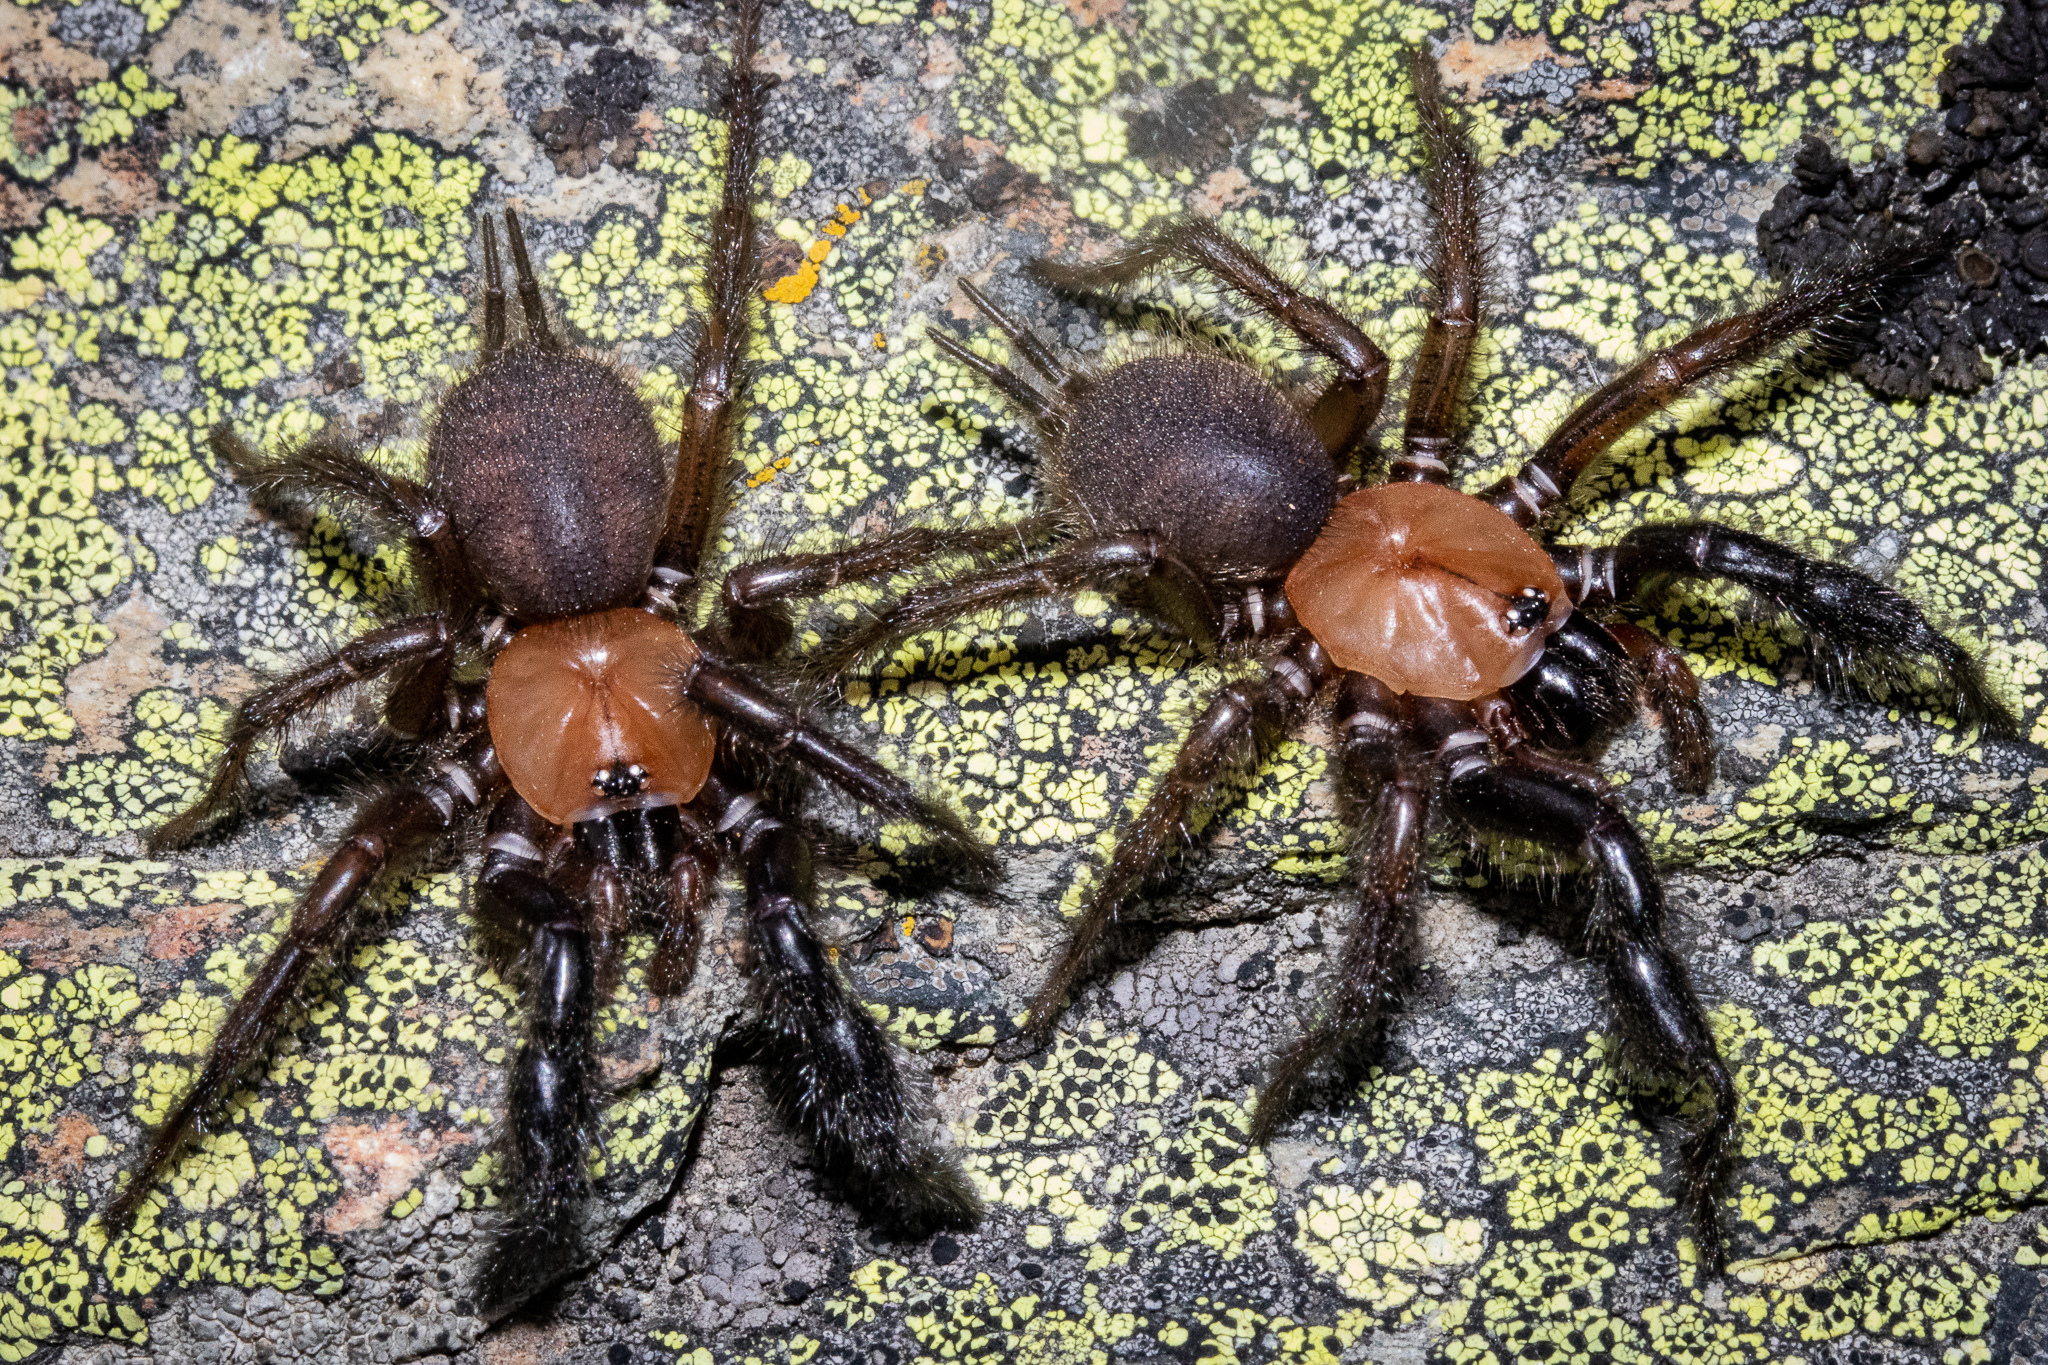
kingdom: Animalia
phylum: Arthropoda
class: Arachnida
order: Araneae
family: Porrhothelidae
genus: Porrhothele
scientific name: Porrhothele antipodiana
